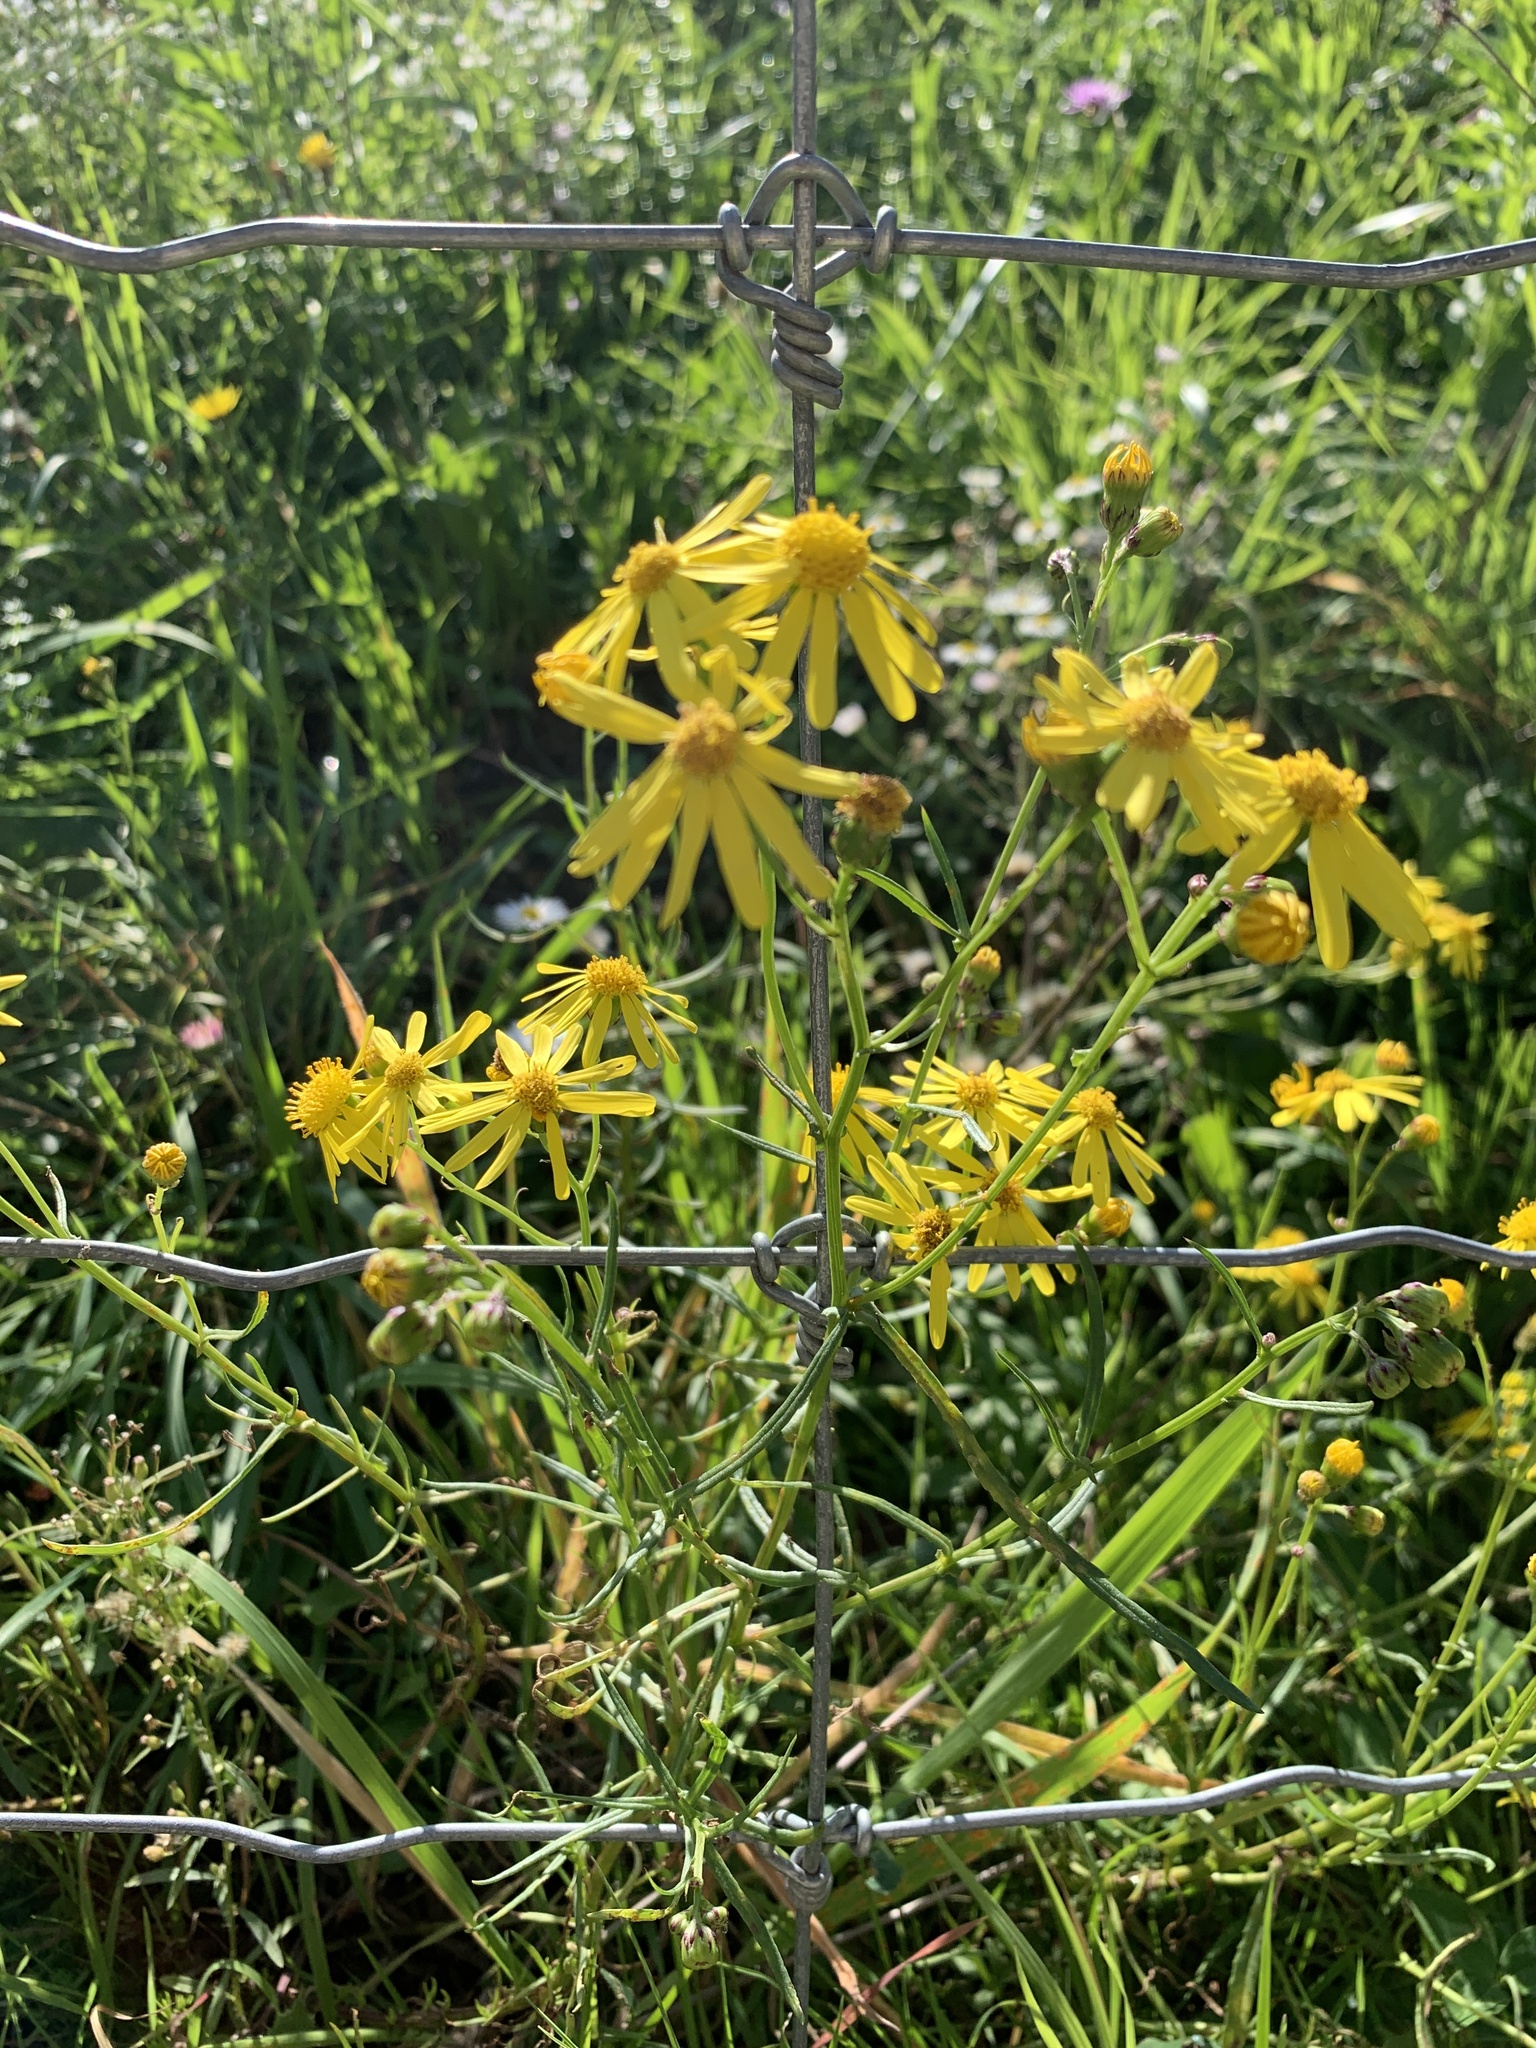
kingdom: Plantae
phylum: Tracheophyta
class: Magnoliopsida
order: Asterales
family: Asteraceae
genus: Senecio
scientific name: Senecio inaequidens
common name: Narrow-leaved ragwort
